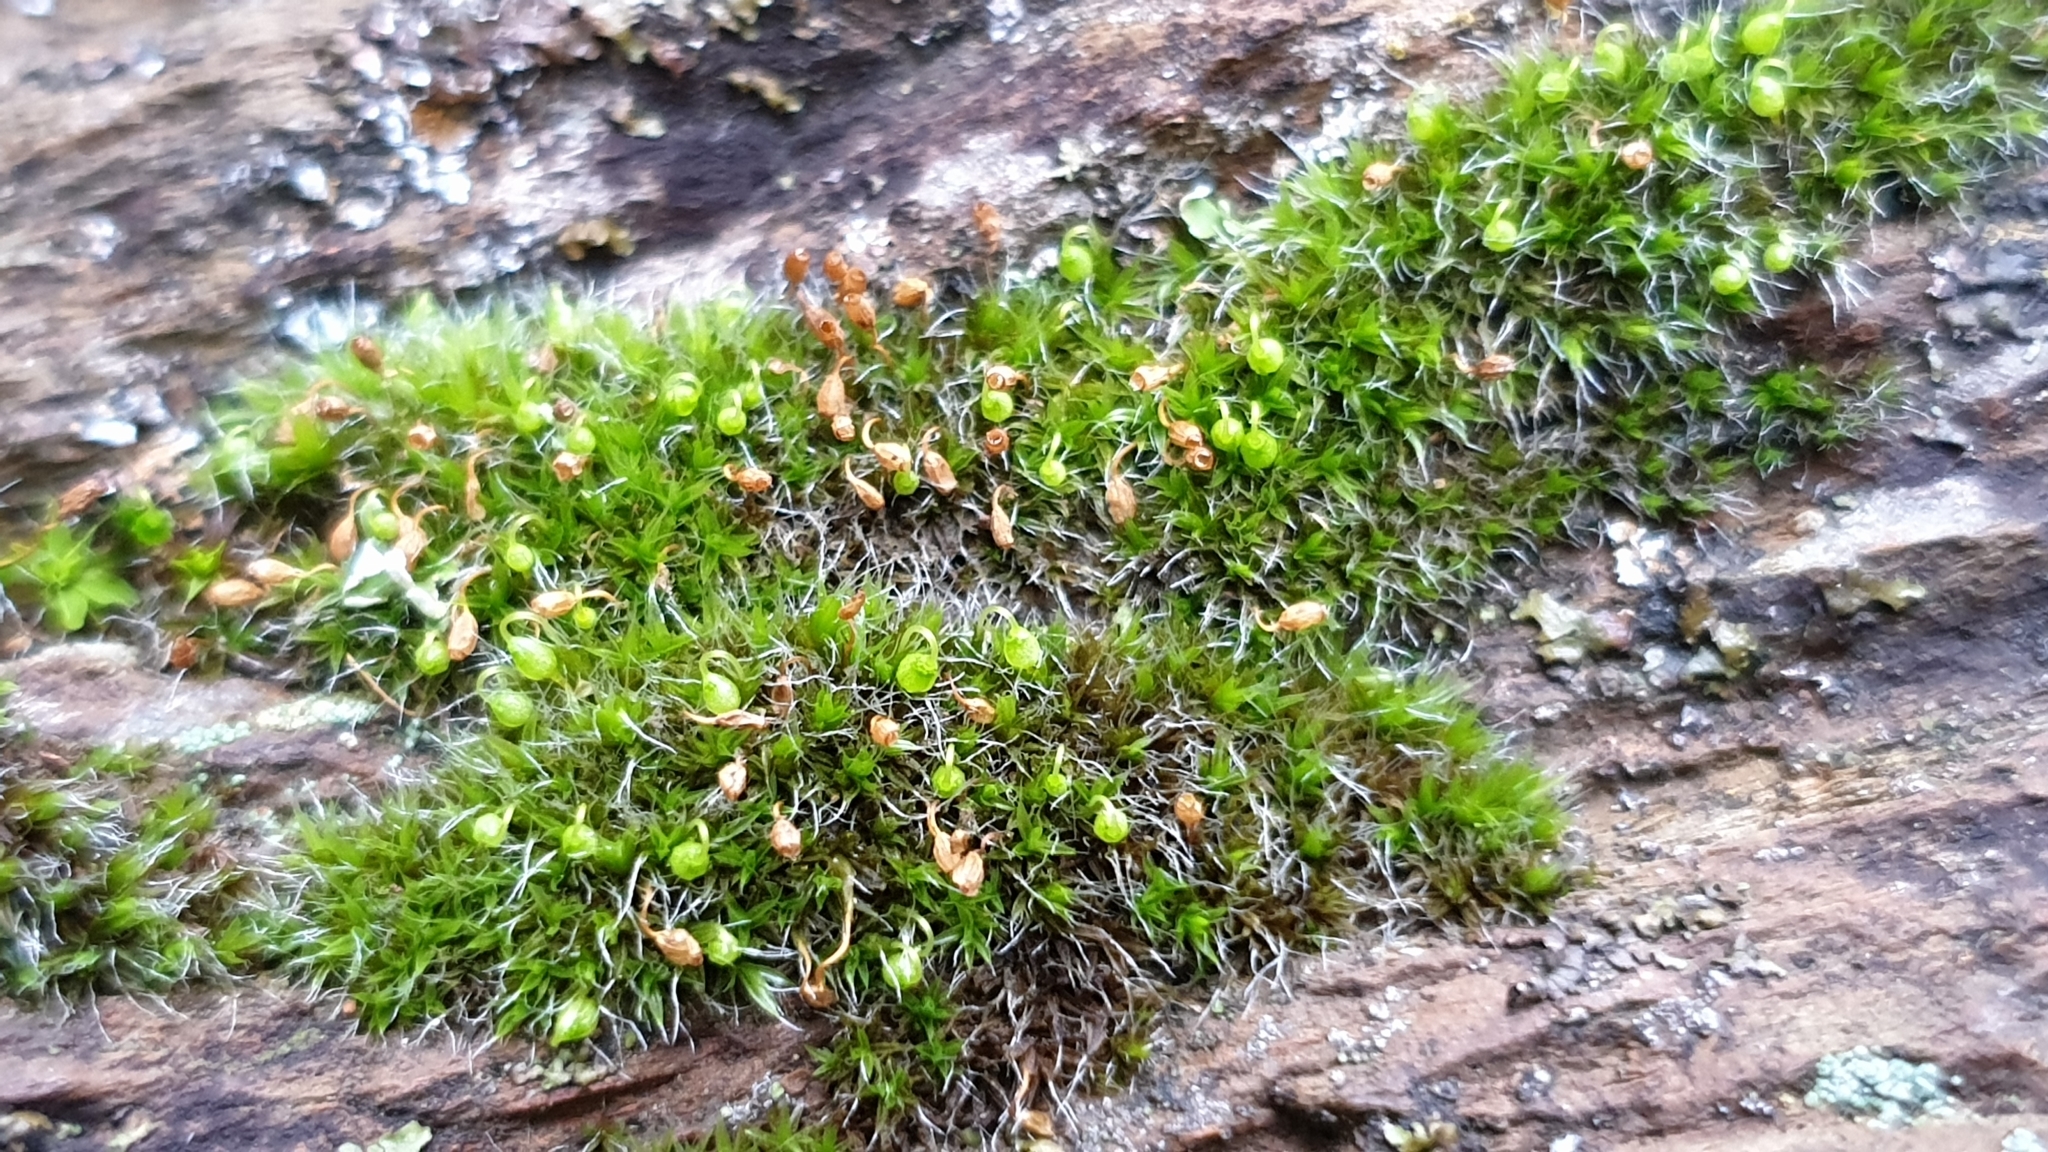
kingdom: Plantae
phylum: Bryophyta
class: Bryopsida
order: Grimmiales
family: Grimmiaceae
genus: Grimmia
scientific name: Grimmia pulvinata
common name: Grey-cushioned grimmia
